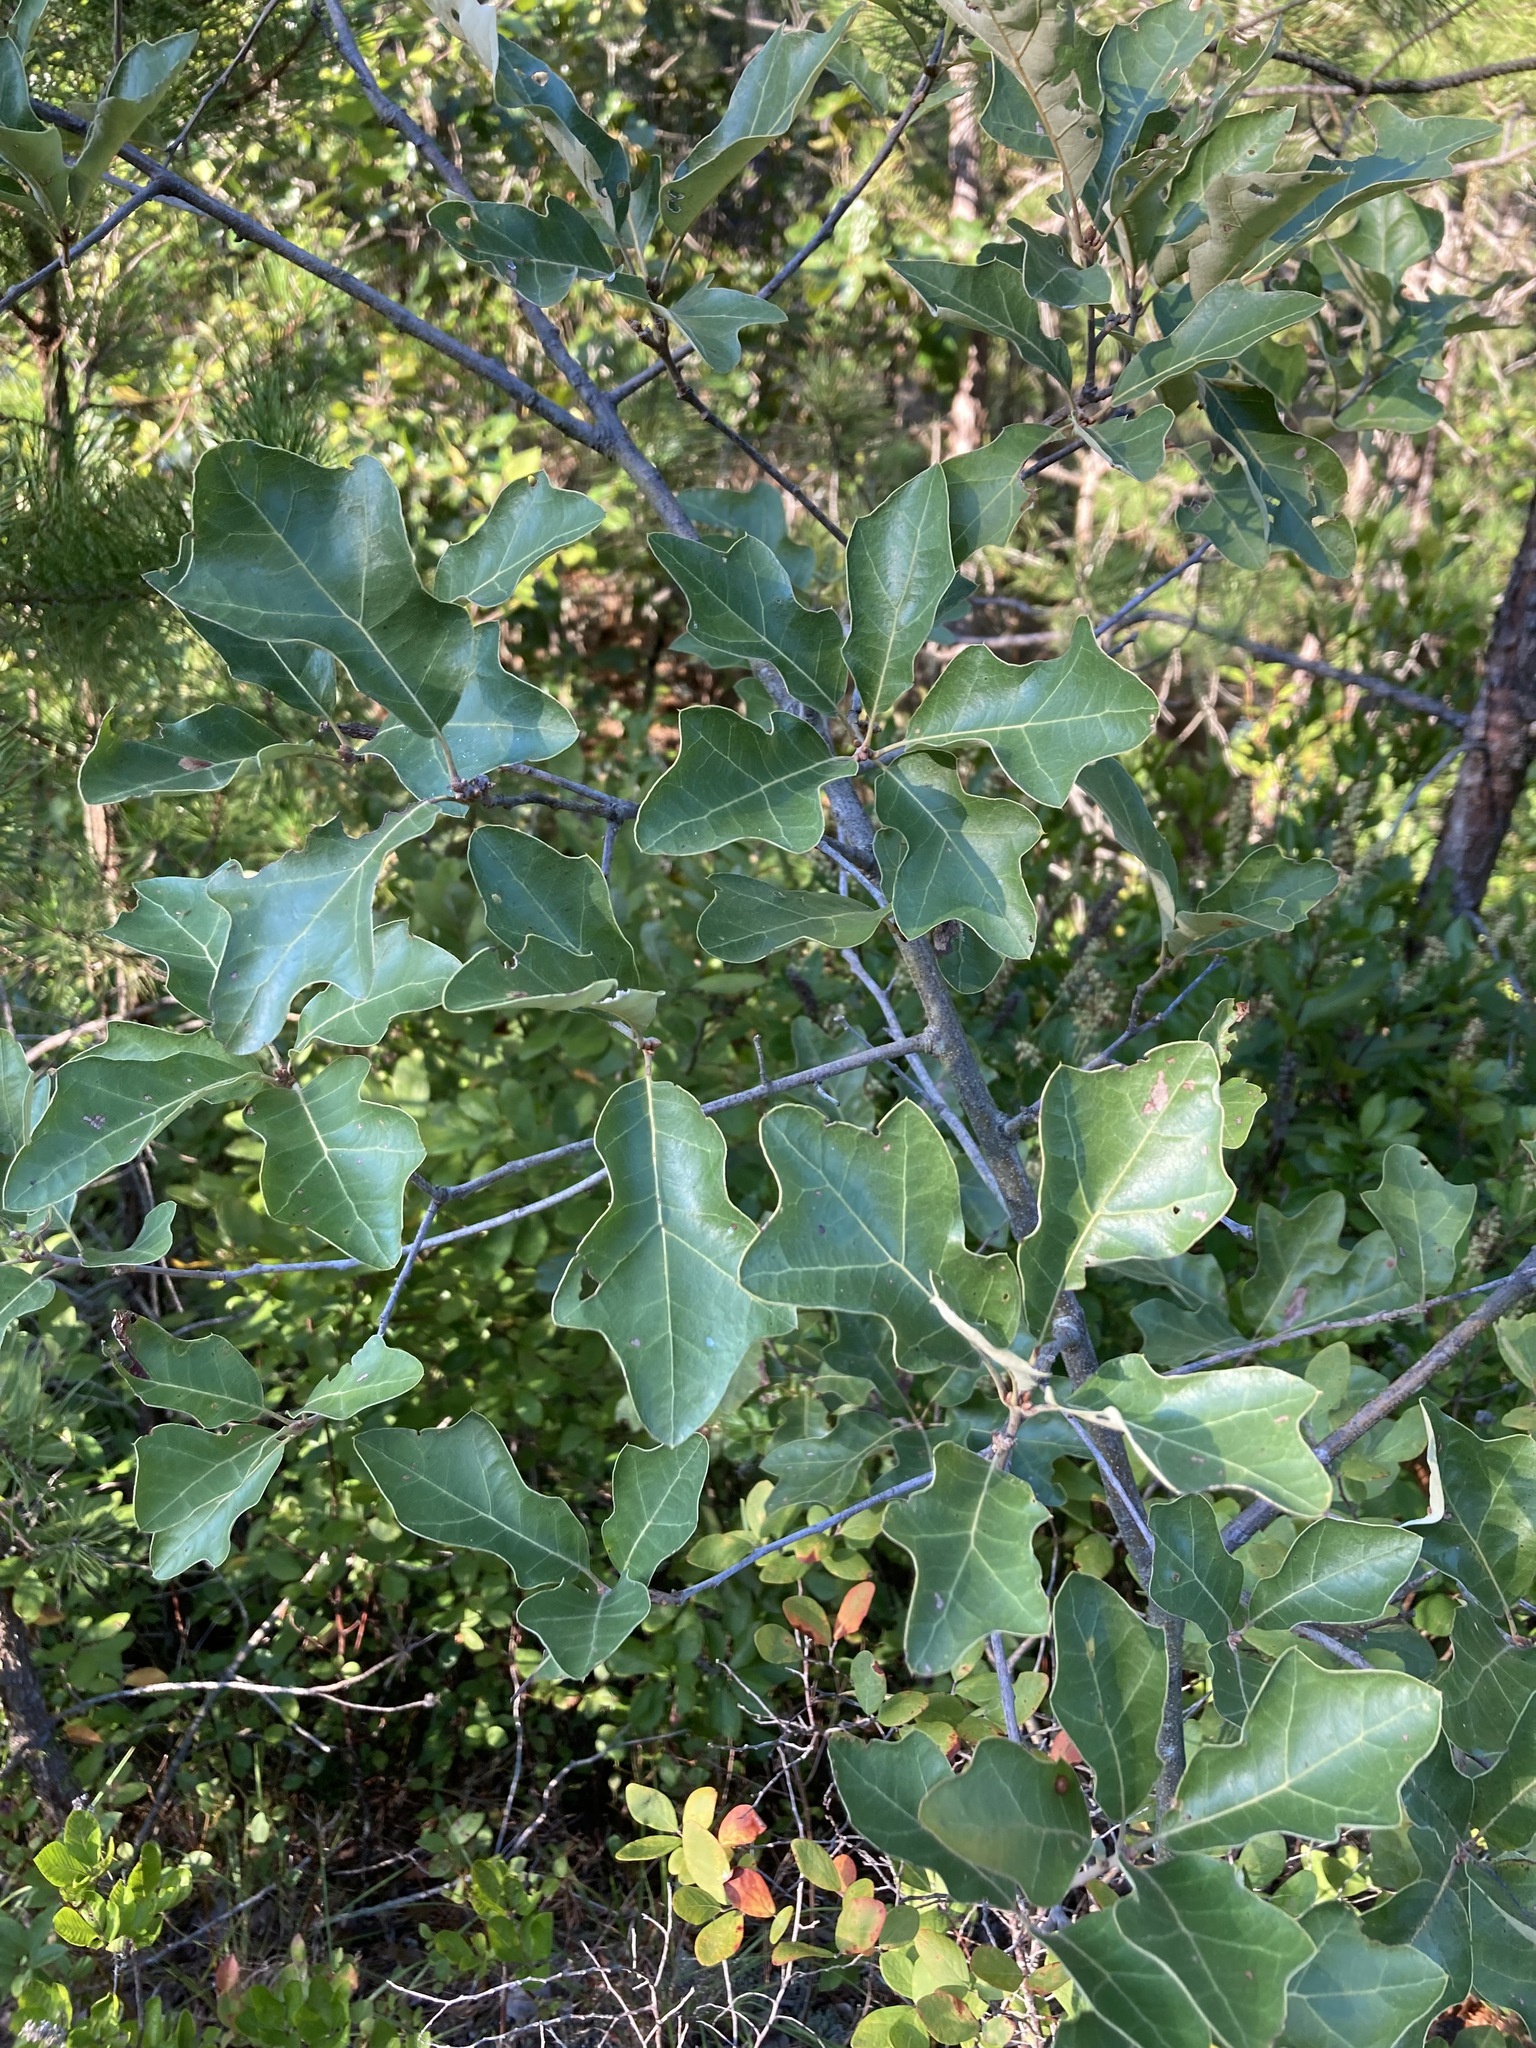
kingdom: Plantae
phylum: Tracheophyta
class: Magnoliopsida
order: Fagales
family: Fagaceae
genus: Quercus
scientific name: Quercus ilicifolia
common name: Bear oak
